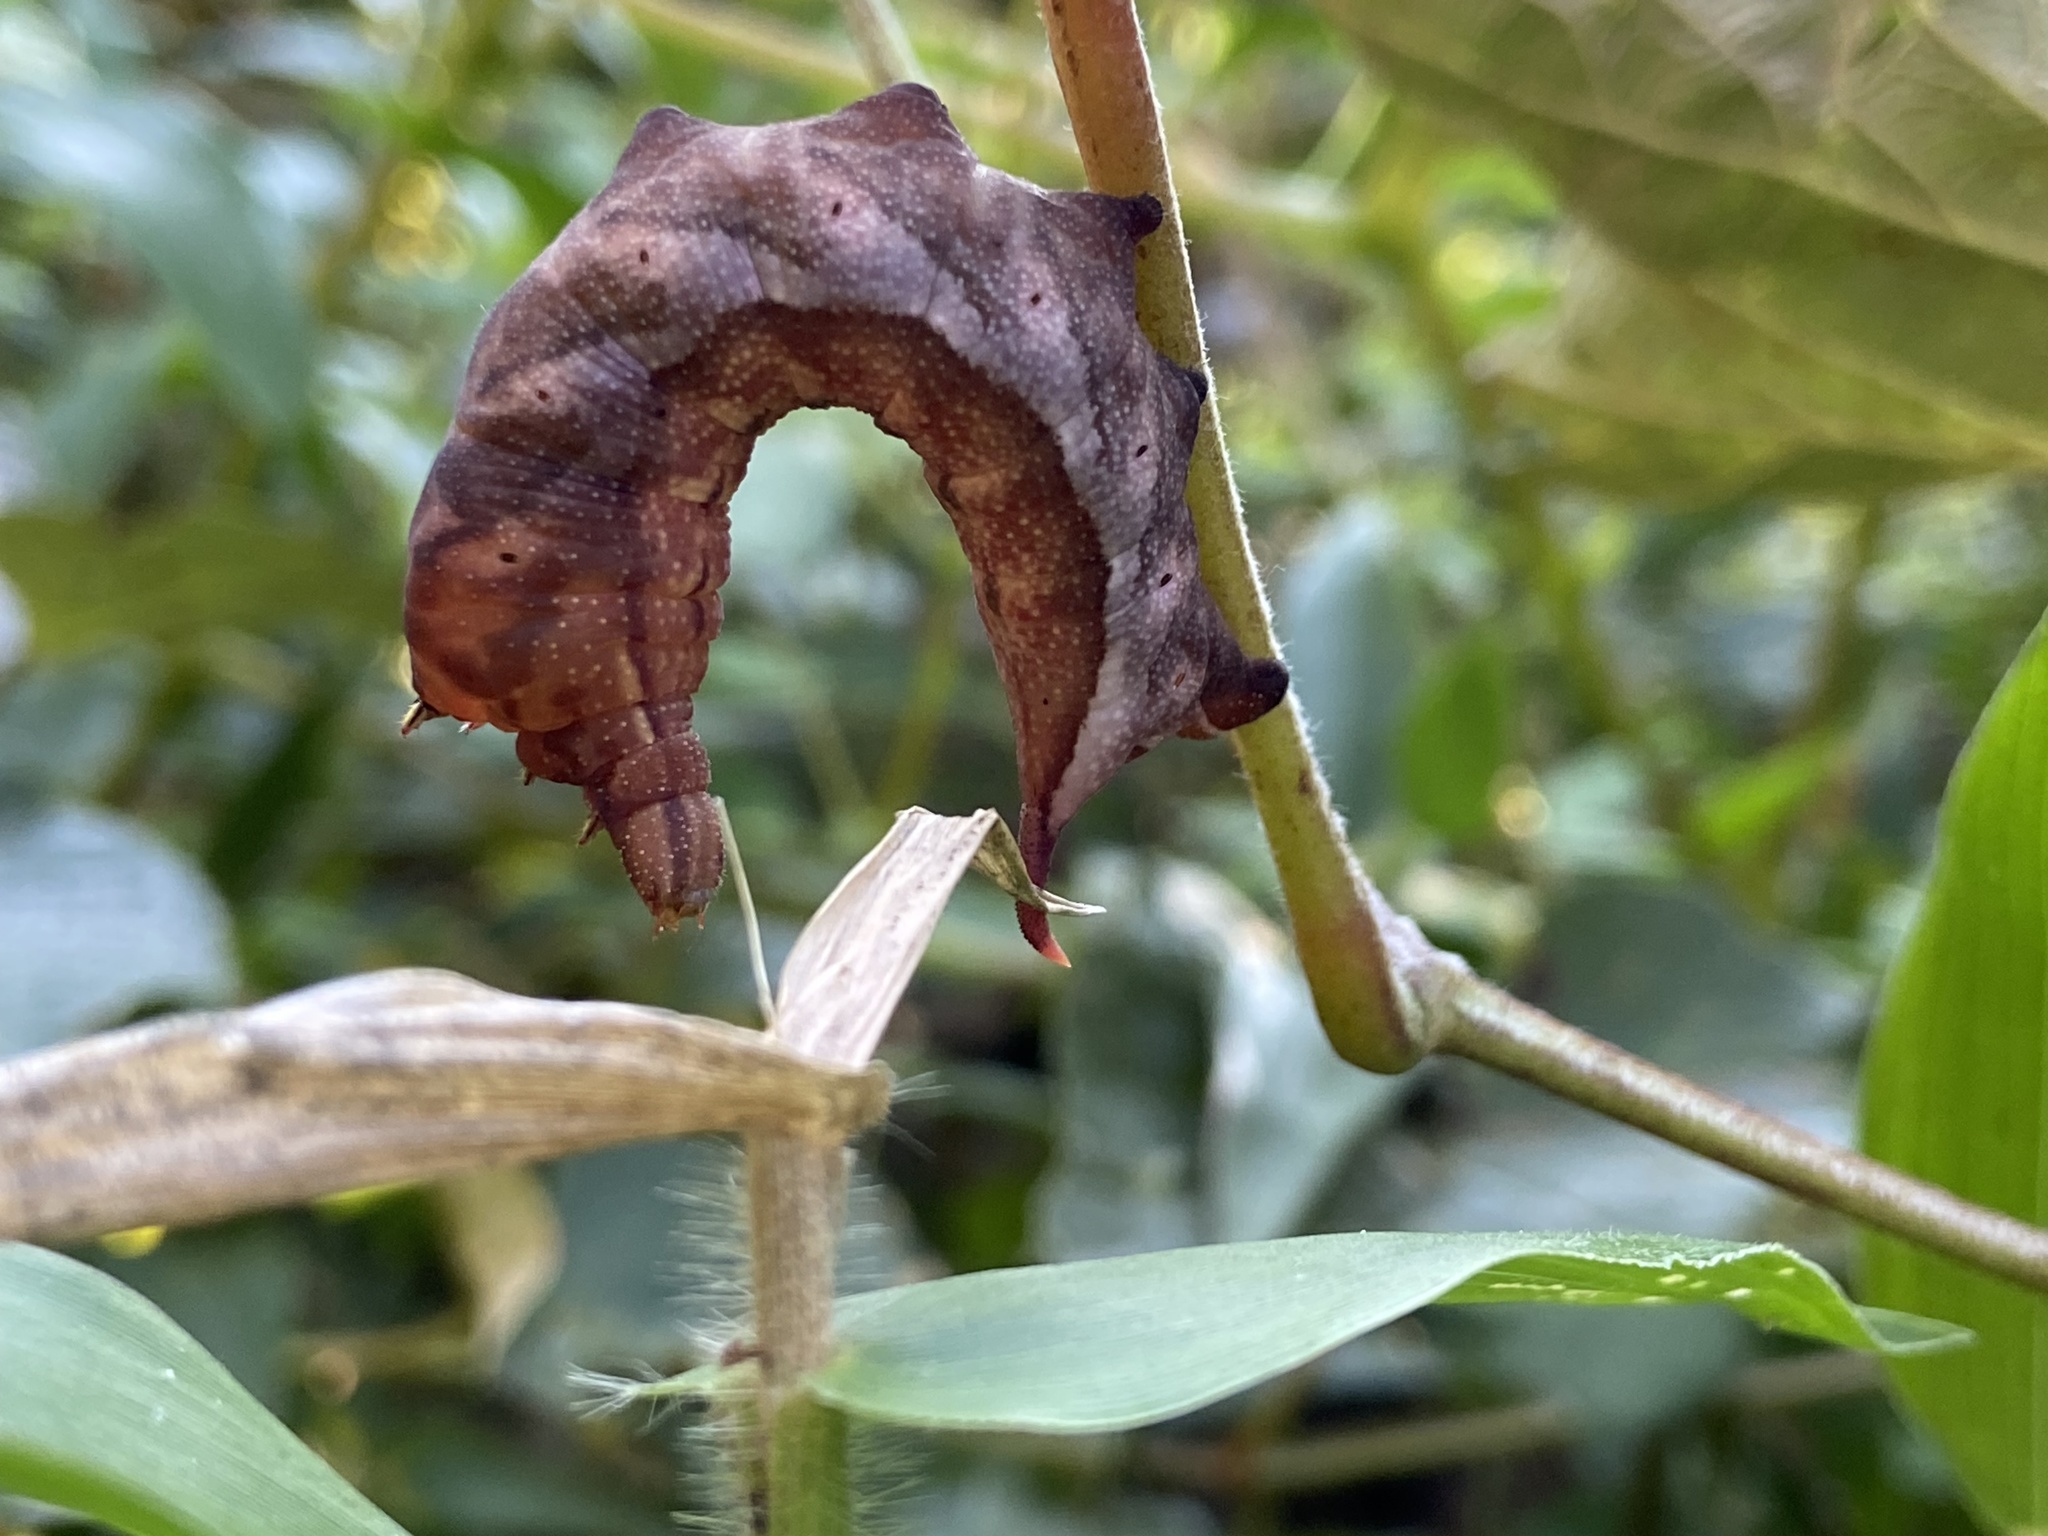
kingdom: Animalia
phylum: Arthropoda
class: Insecta
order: Lepidoptera
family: Sphingidae
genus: Darapsa
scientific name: Darapsa myron
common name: Hog sphinx
